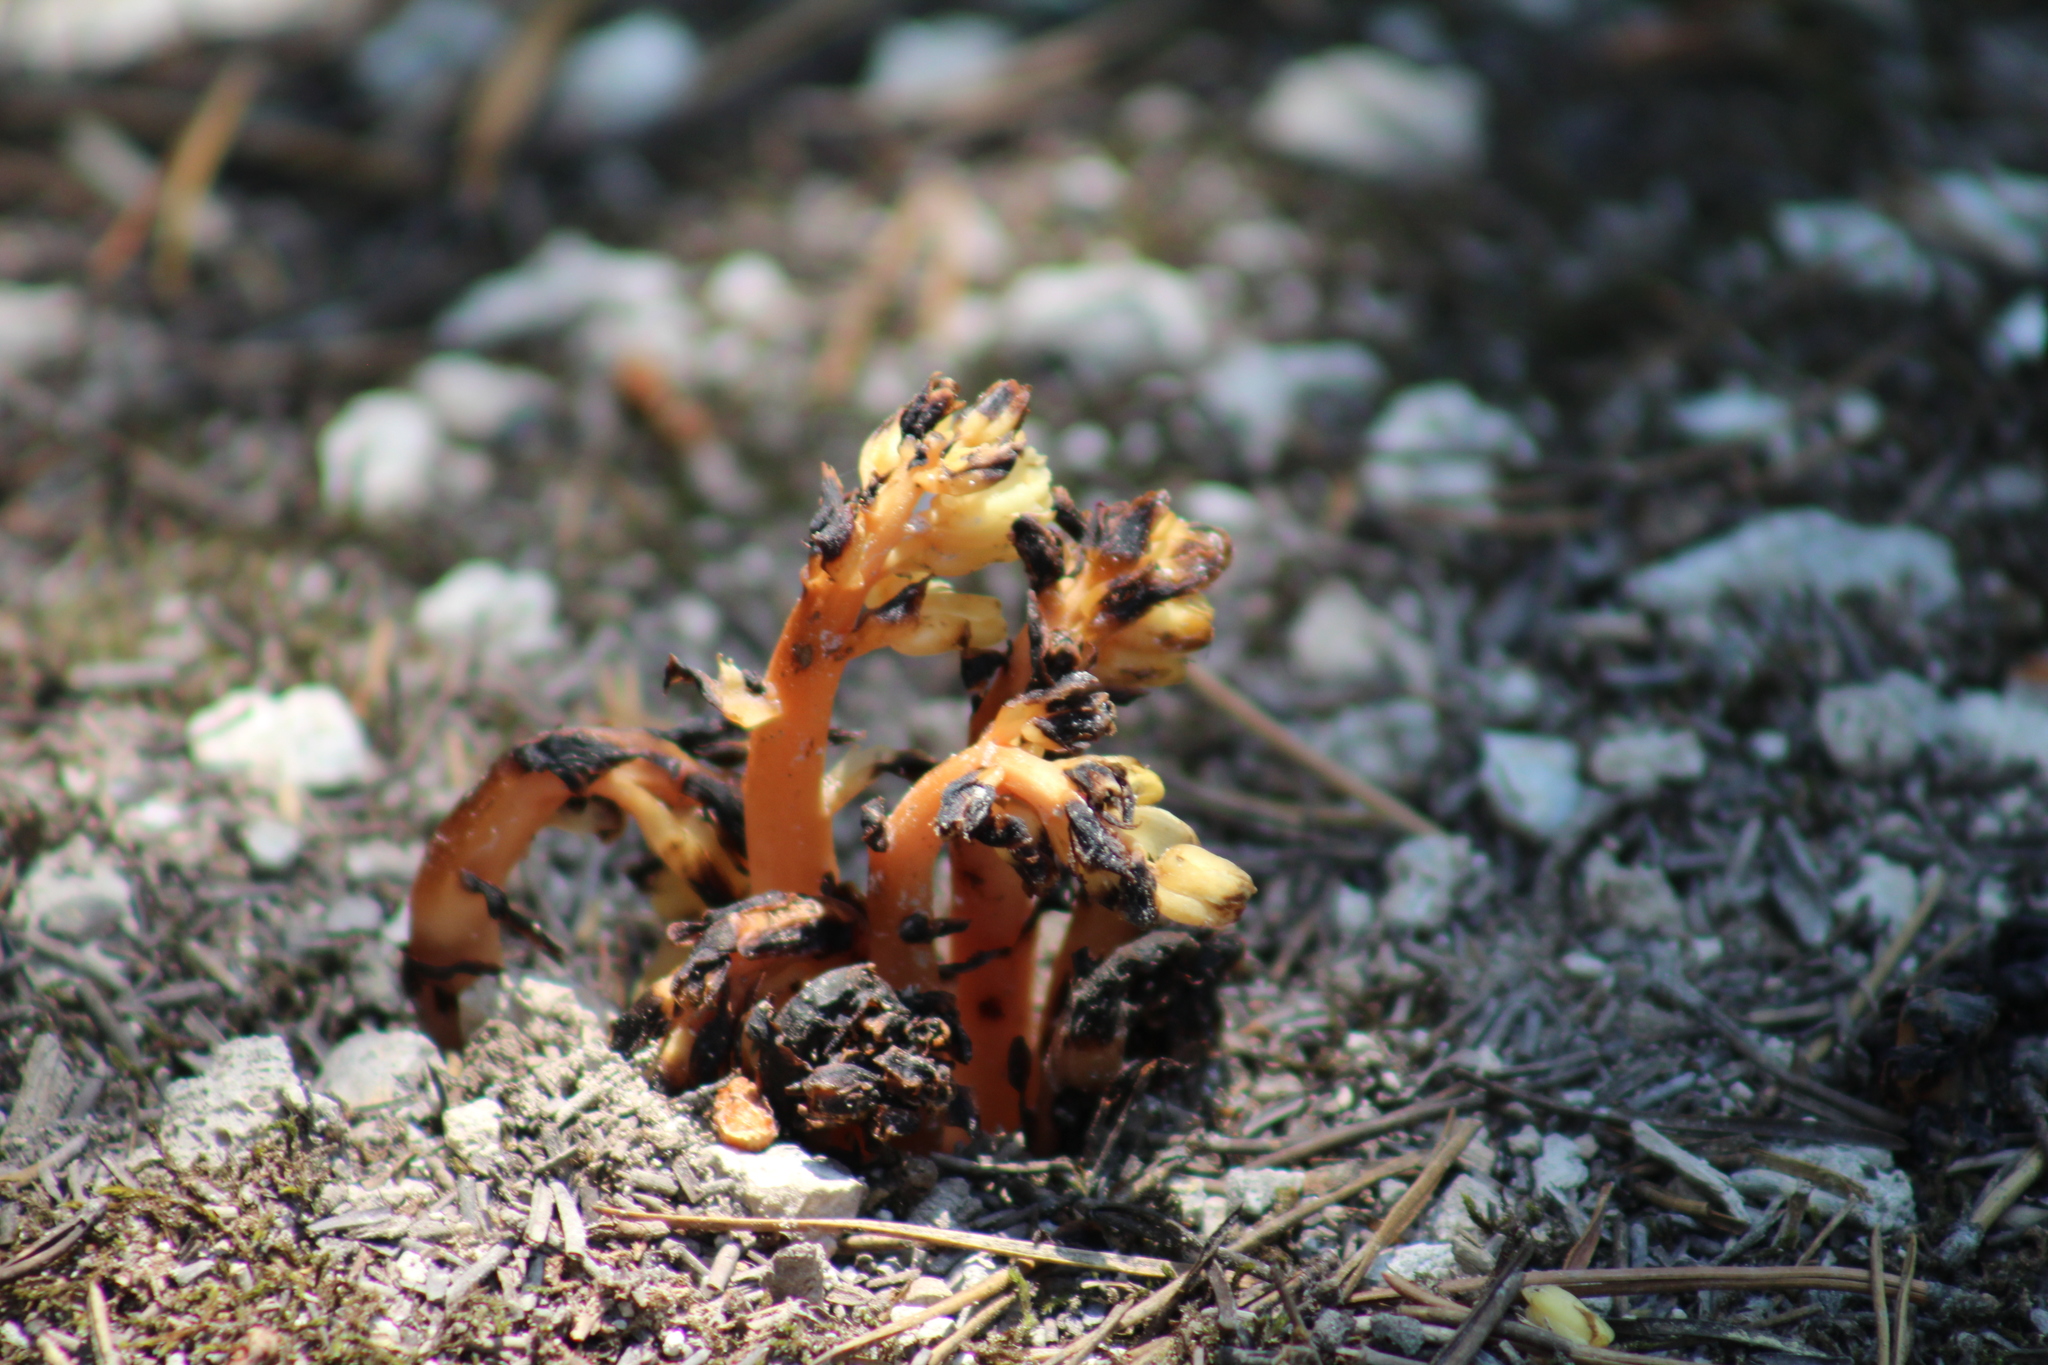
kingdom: Plantae
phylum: Tracheophyta
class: Magnoliopsida
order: Ericales
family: Ericaceae
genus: Hypopitys
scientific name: Hypopitys monotropa
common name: Yellow bird's-nest
